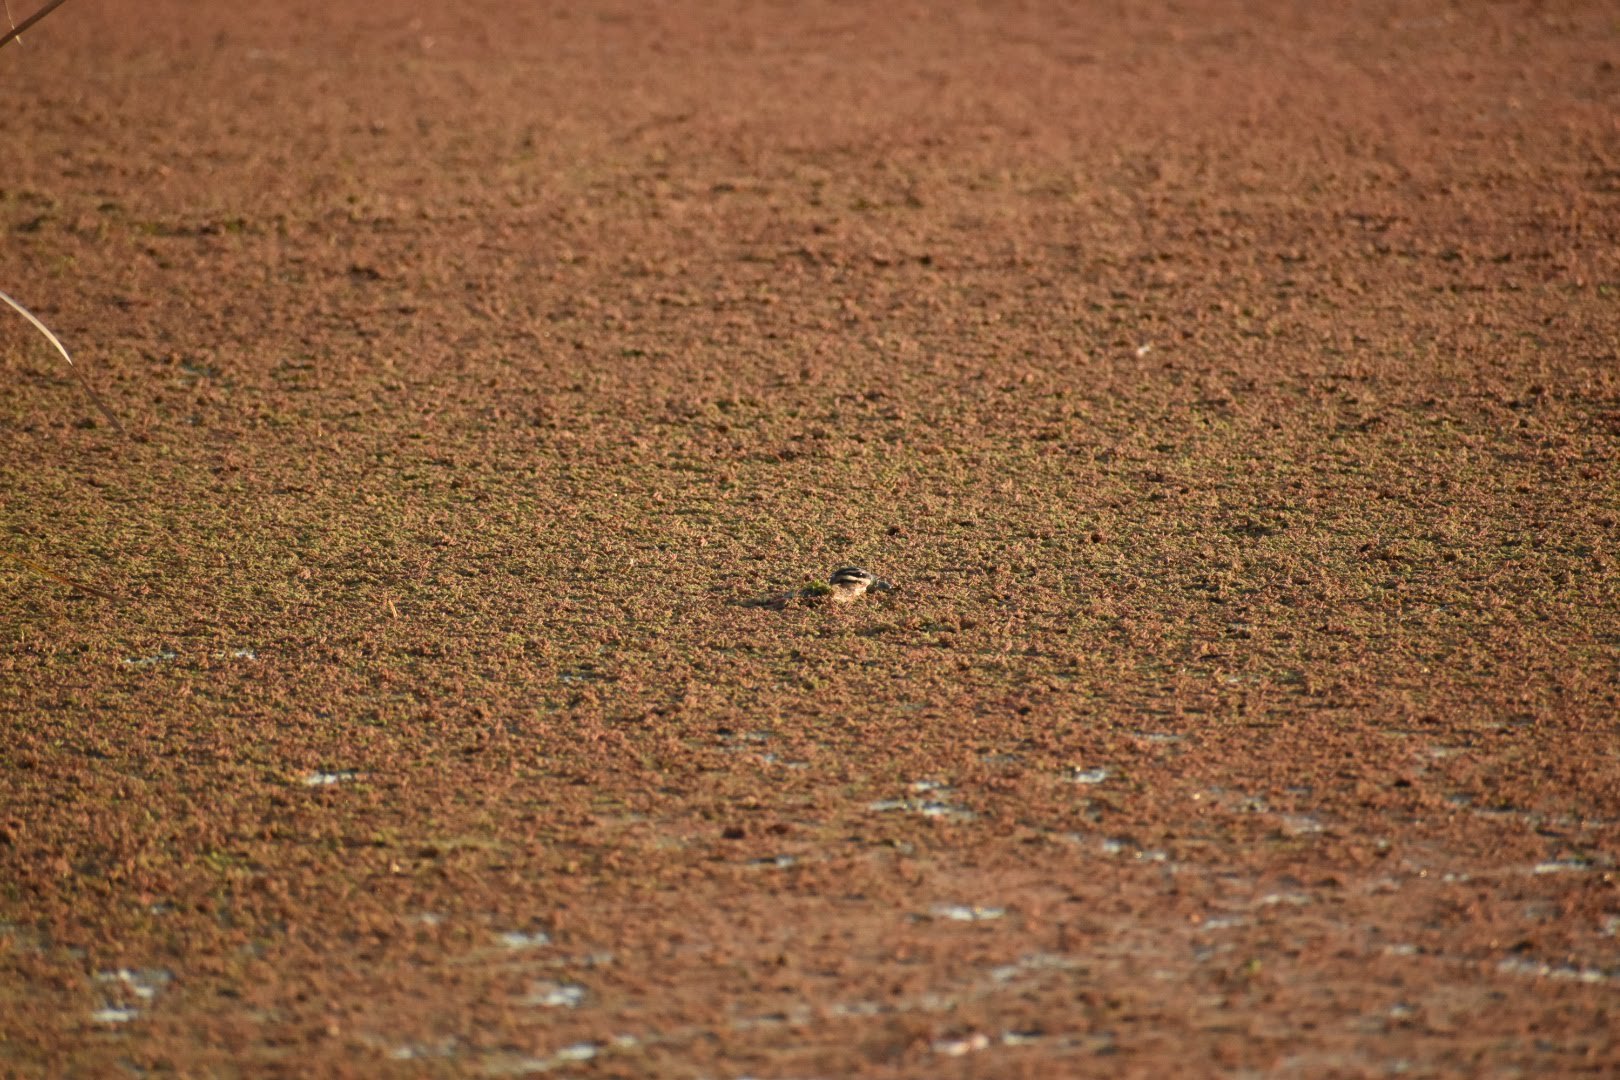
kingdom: Animalia
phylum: Chordata
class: Aves
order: Anseriformes
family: Anatidae
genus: Nomonyx
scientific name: Nomonyx dominicus
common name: Masked duck
